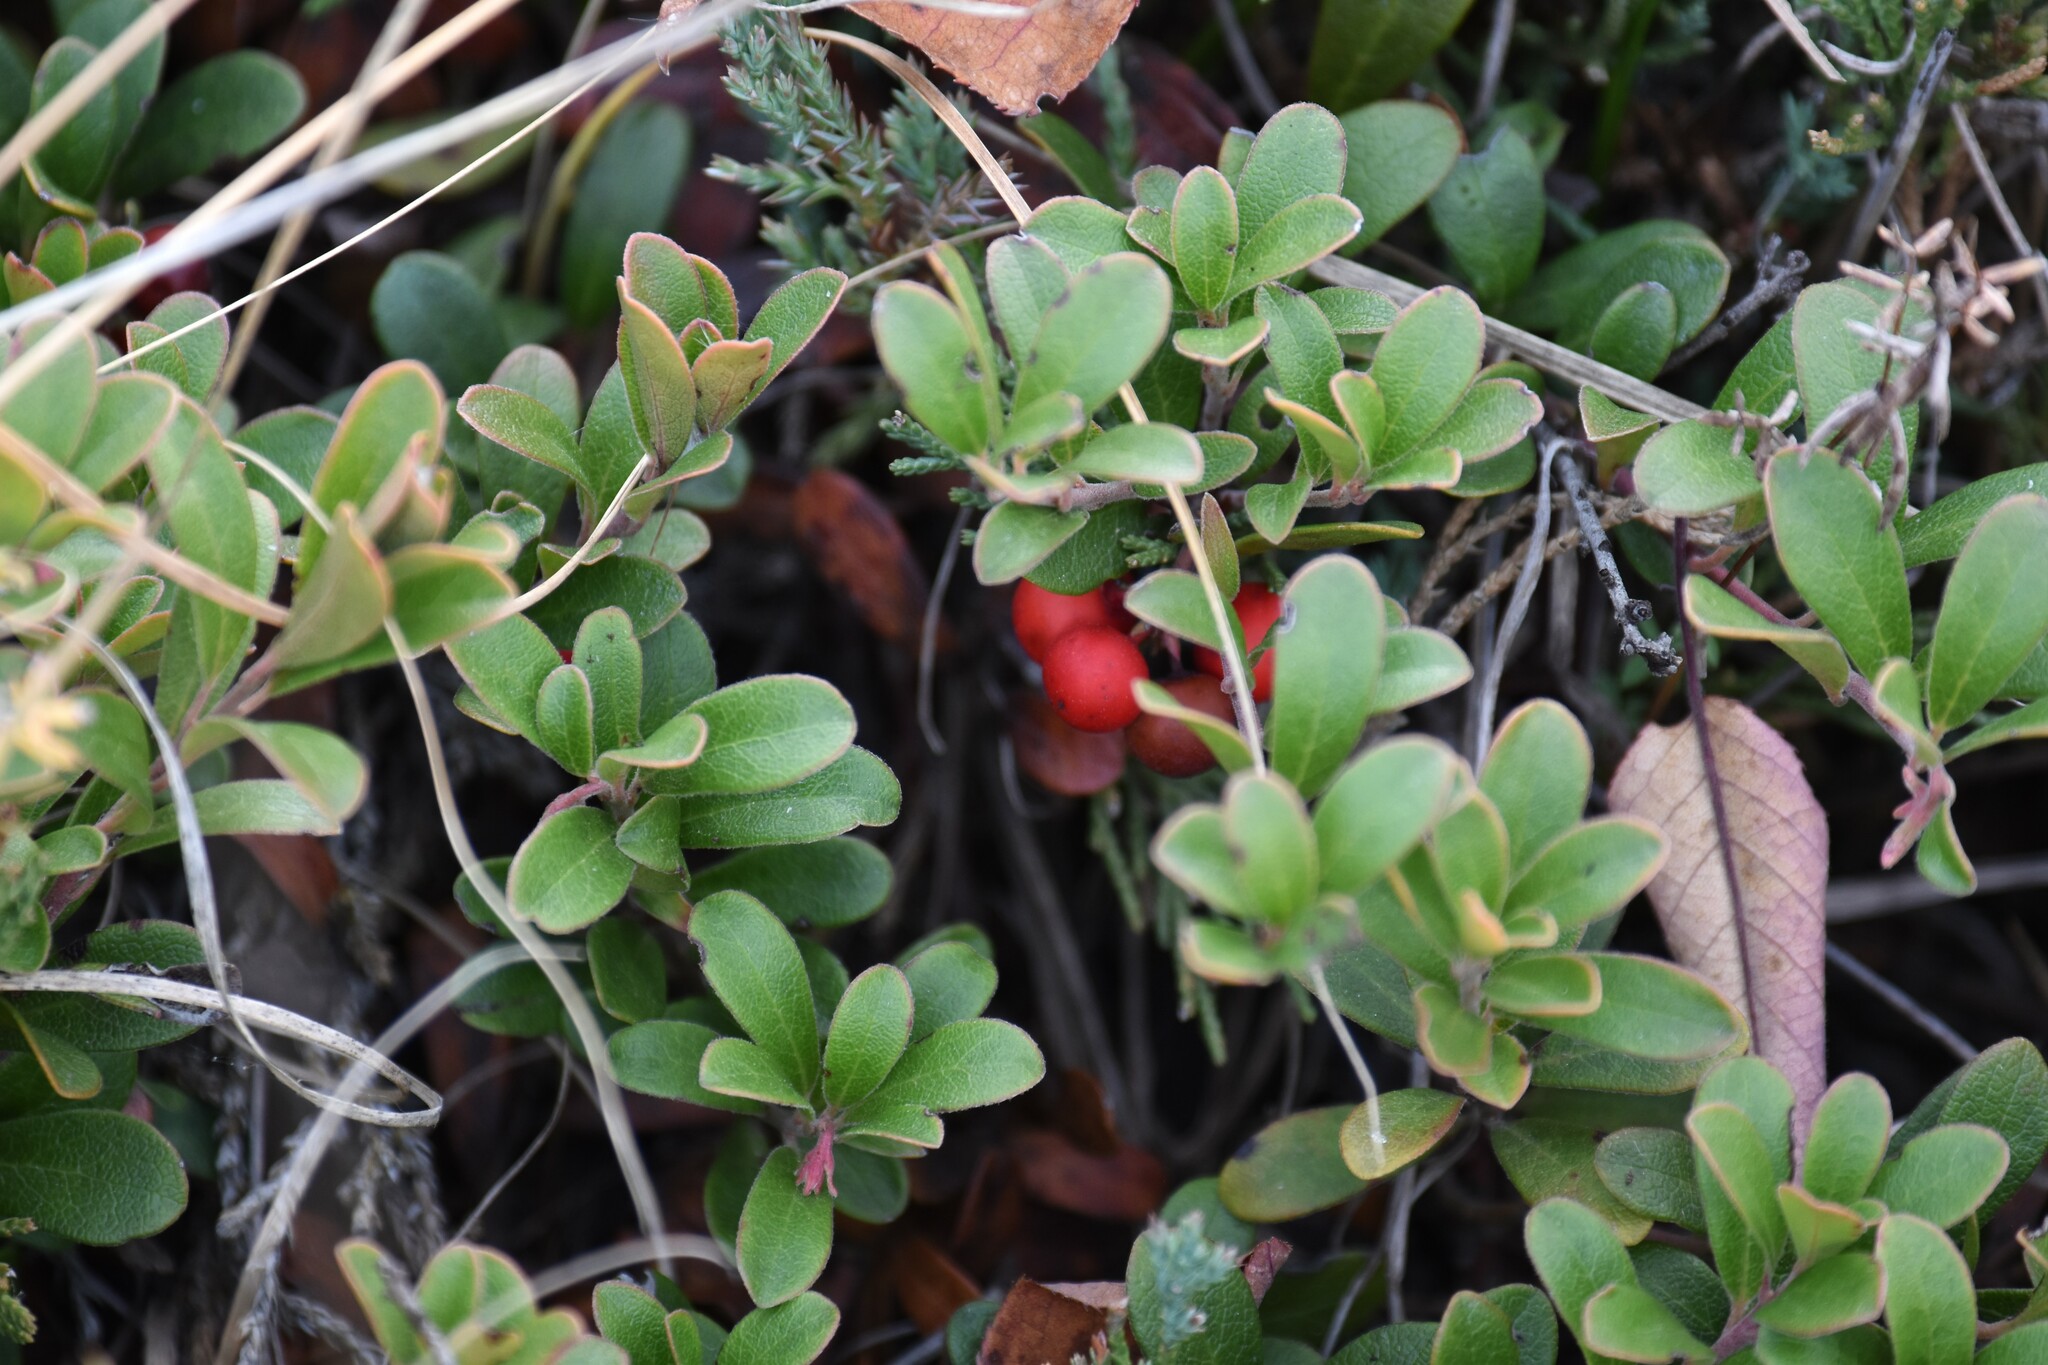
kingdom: Plantae
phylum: Tracheophyta
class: Magnoliopsida
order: Ericales
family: Ericaceae
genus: Arctostaphylos
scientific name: Arctostaphylos uva-ursi
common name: Bearberry
